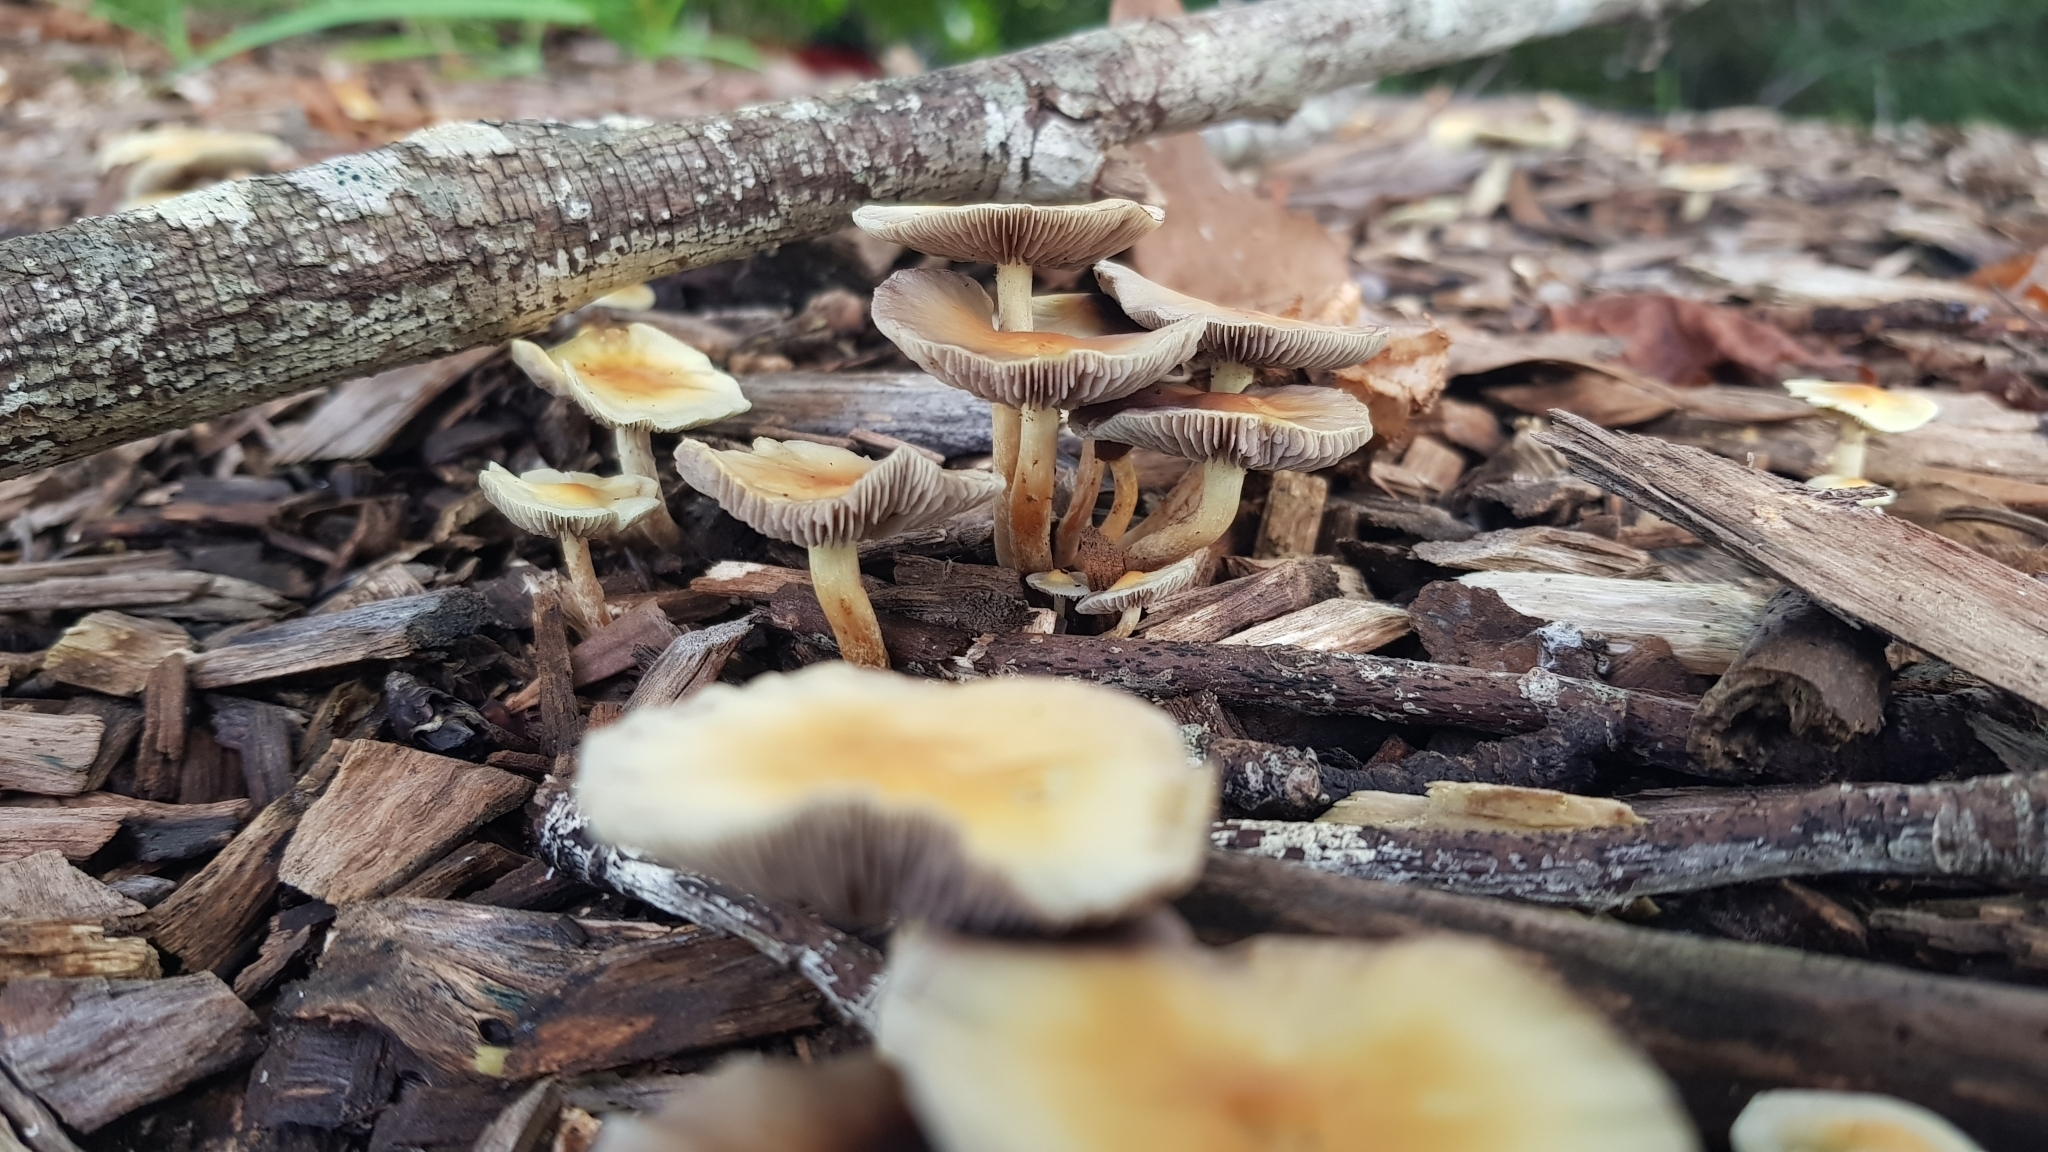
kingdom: Fungi
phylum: Basidiomycota
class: Agaricomycetes
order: Agaricales
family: Strophariaceae
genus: Hypholoma
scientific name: Hypholoma fasciculare
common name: Sulphur tuft
